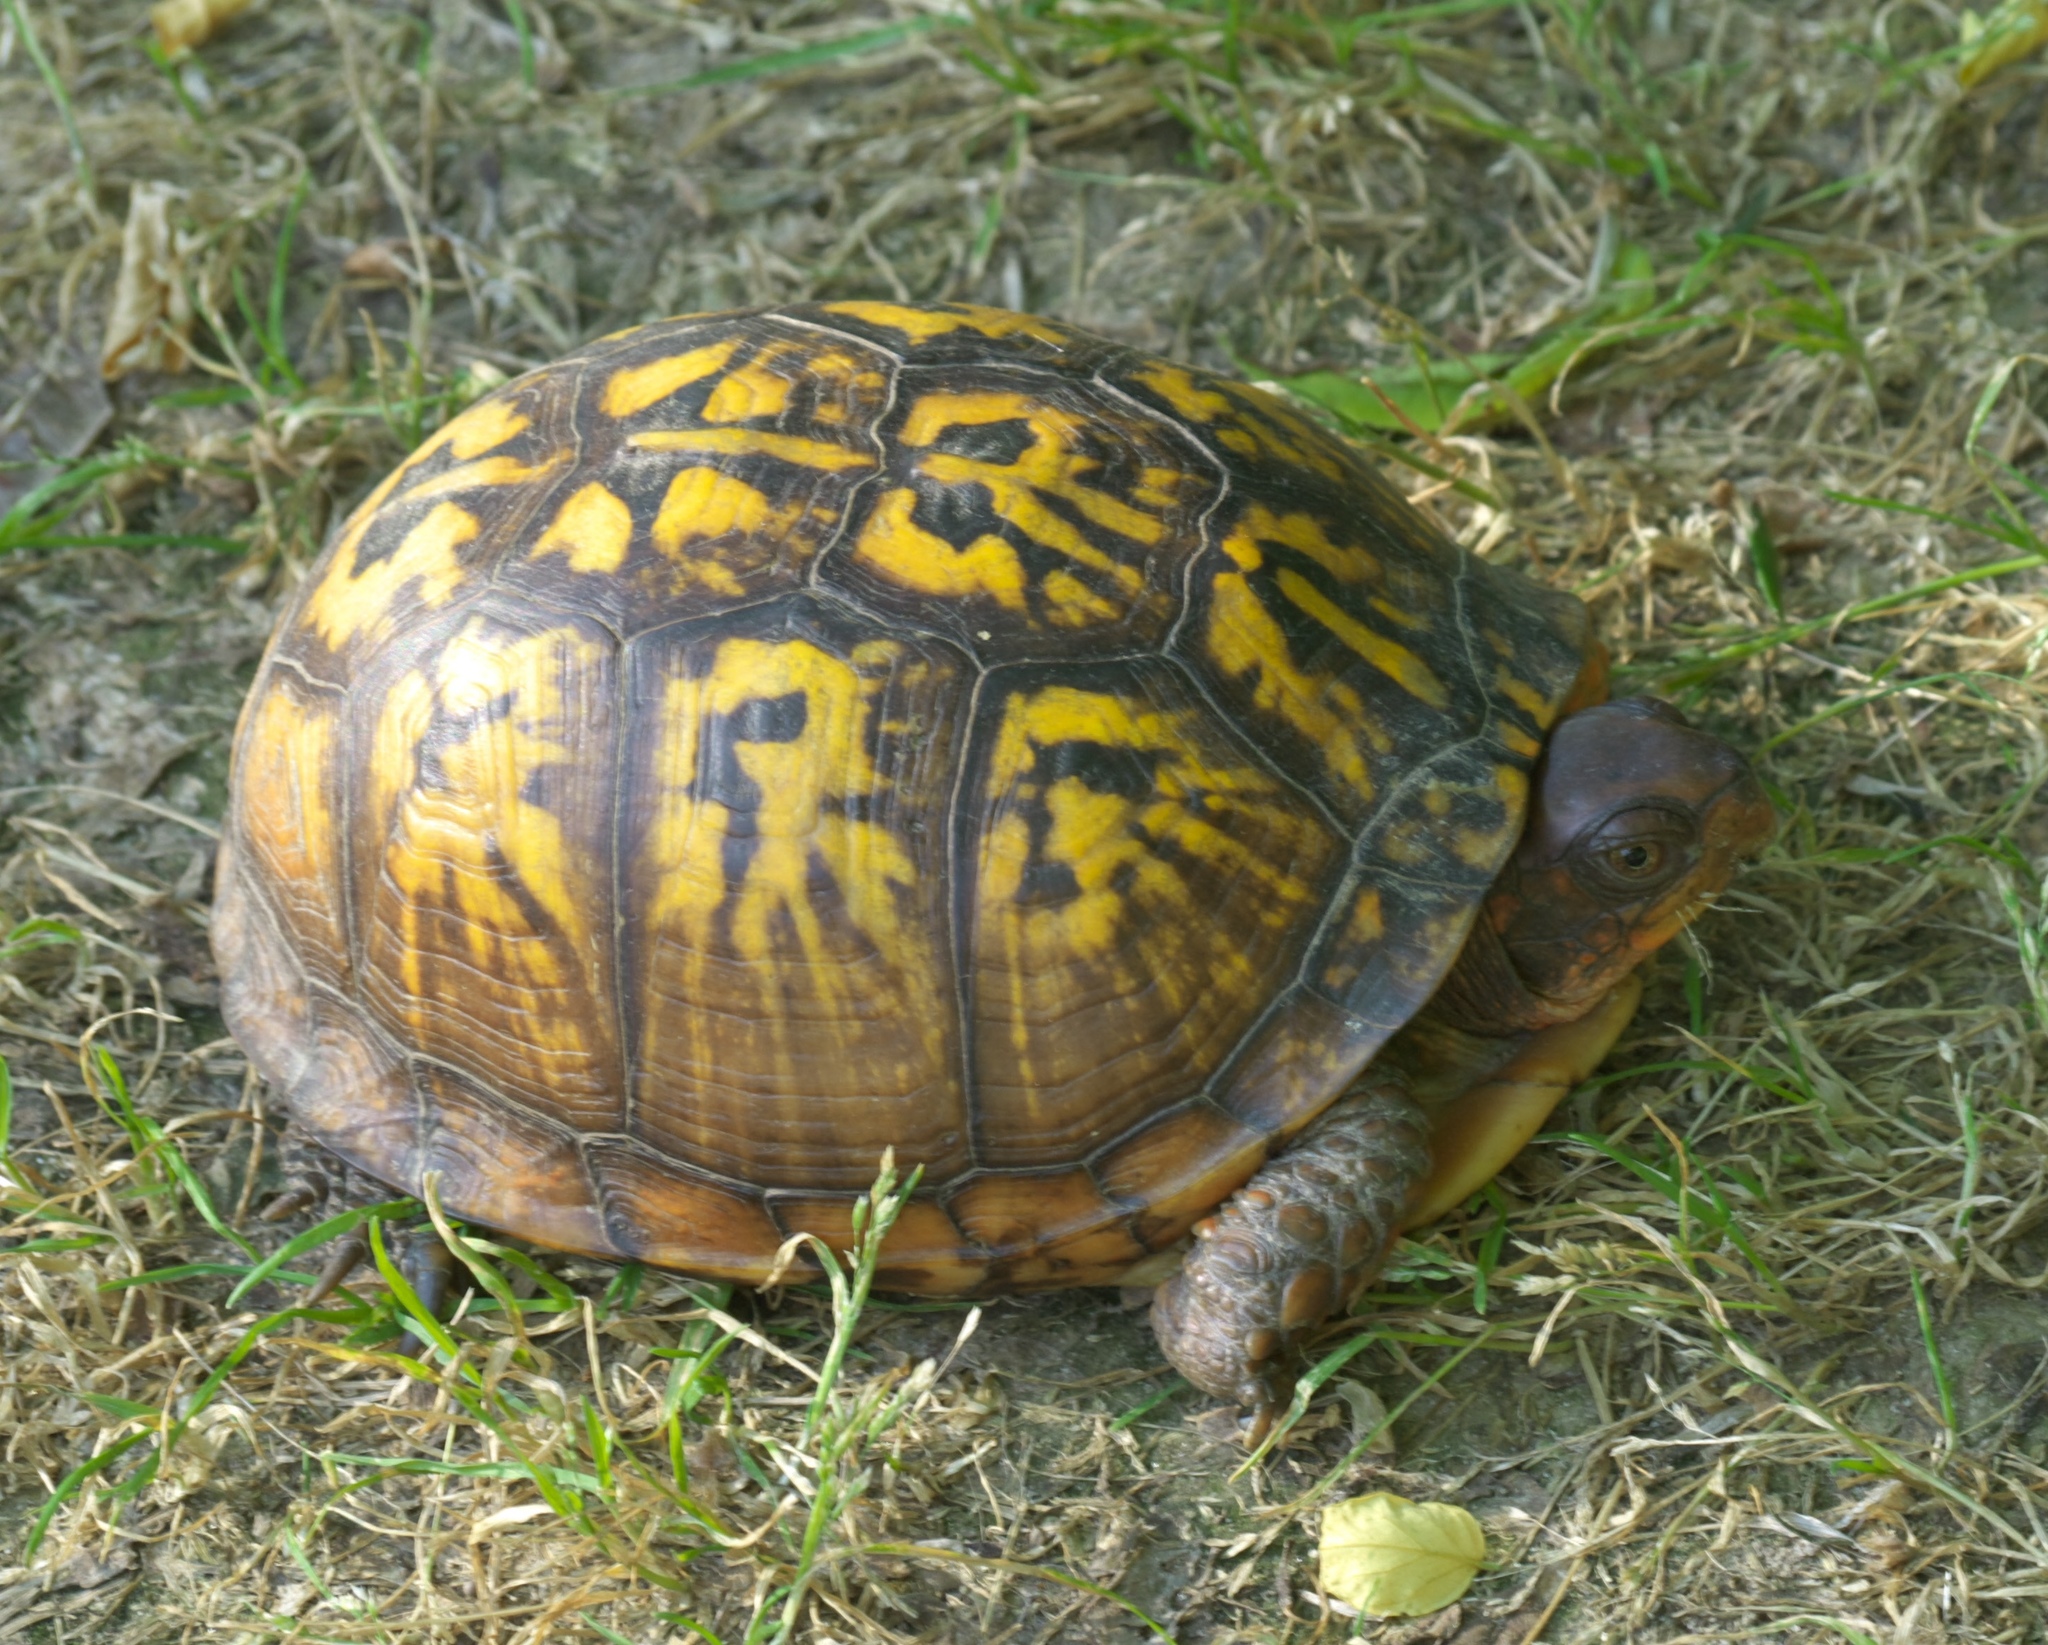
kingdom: Animalia
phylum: Chordata
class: Testudines
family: Emydidae
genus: Terrapene
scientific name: Terrapene carolina
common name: Common box turtle
